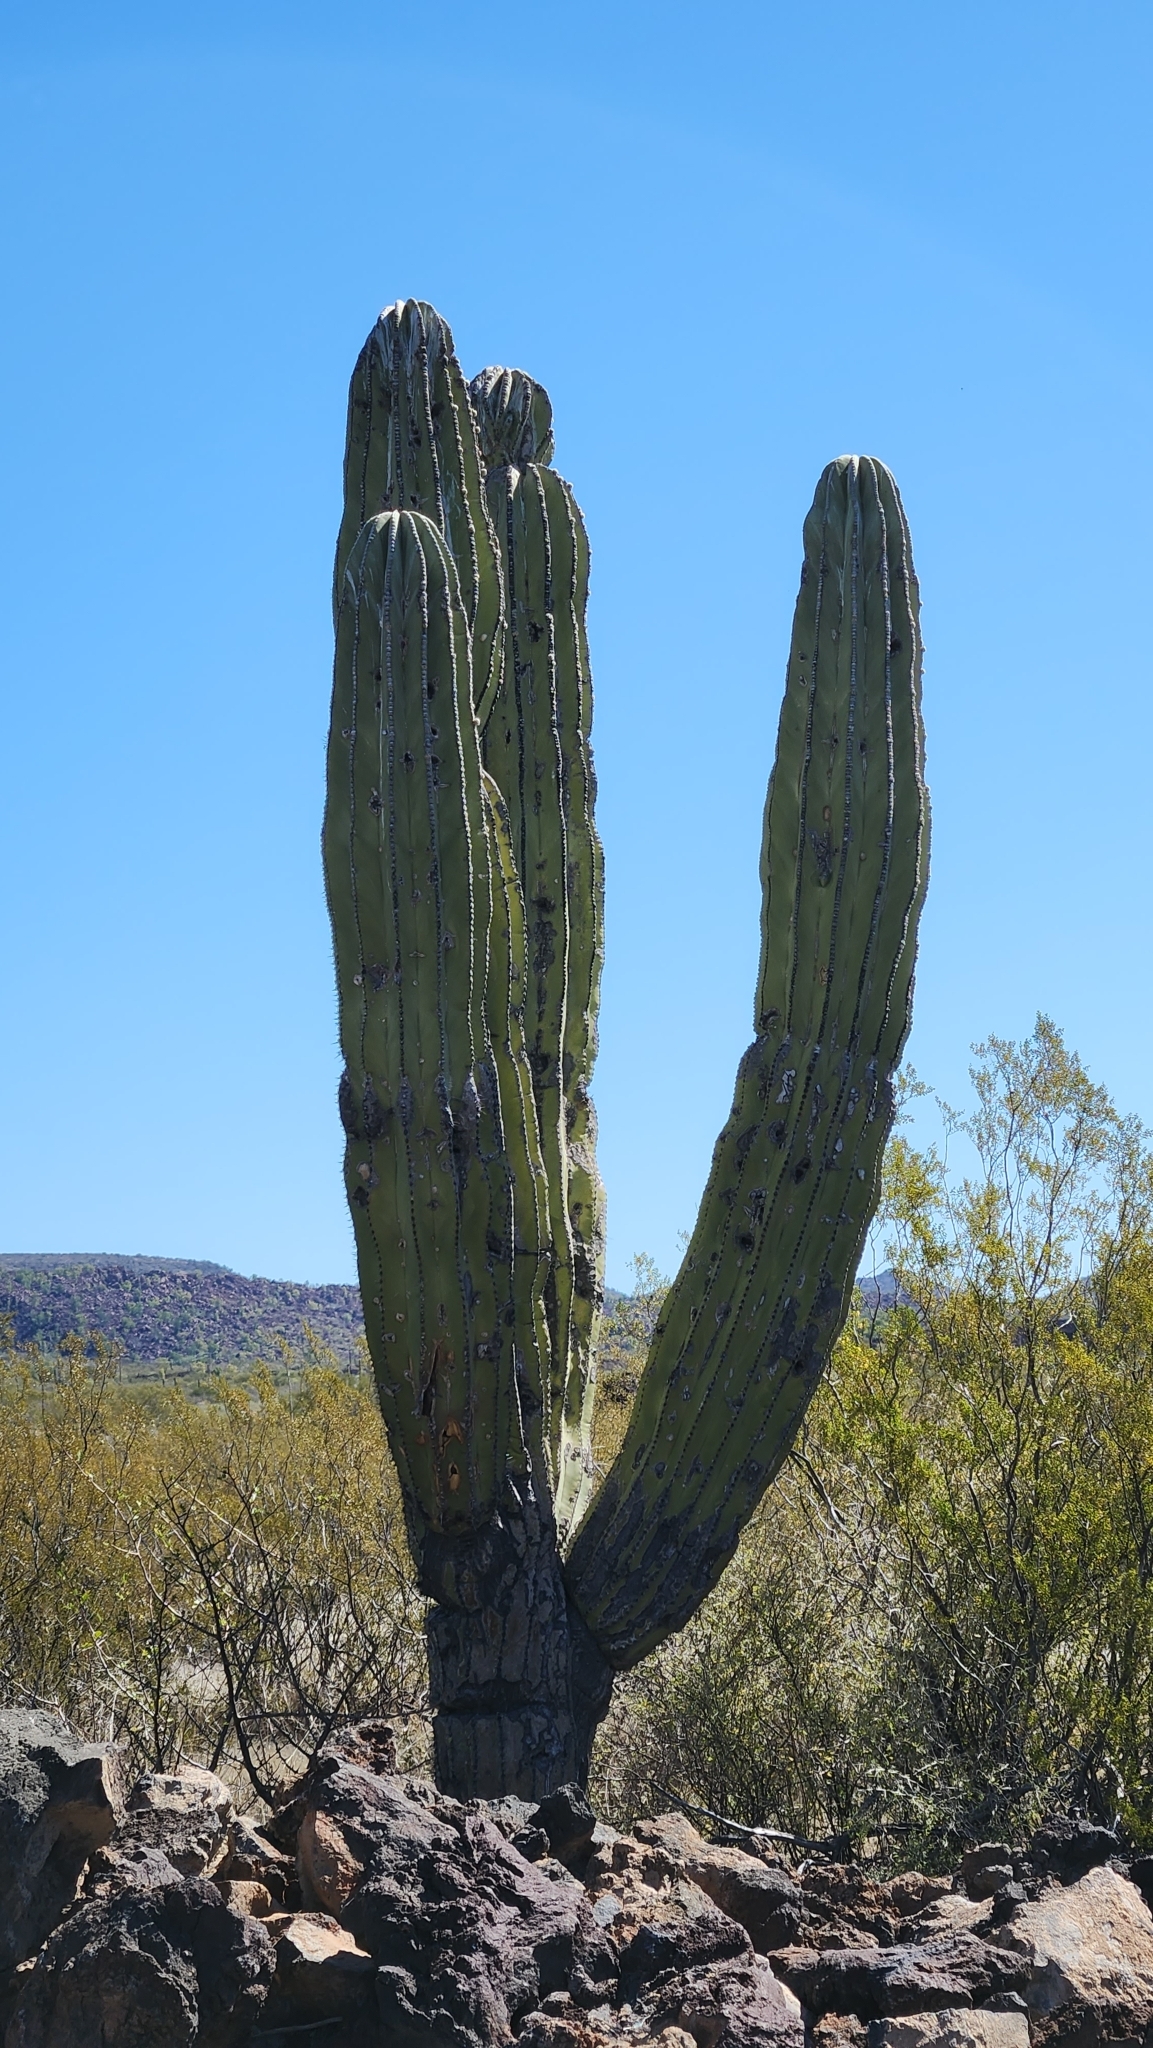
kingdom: Plantae
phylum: Tracheophyta
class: Magnoliopsida
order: Caryophyllales
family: Cactaceae
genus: Pachycereus
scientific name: Pachycereus pringlei
